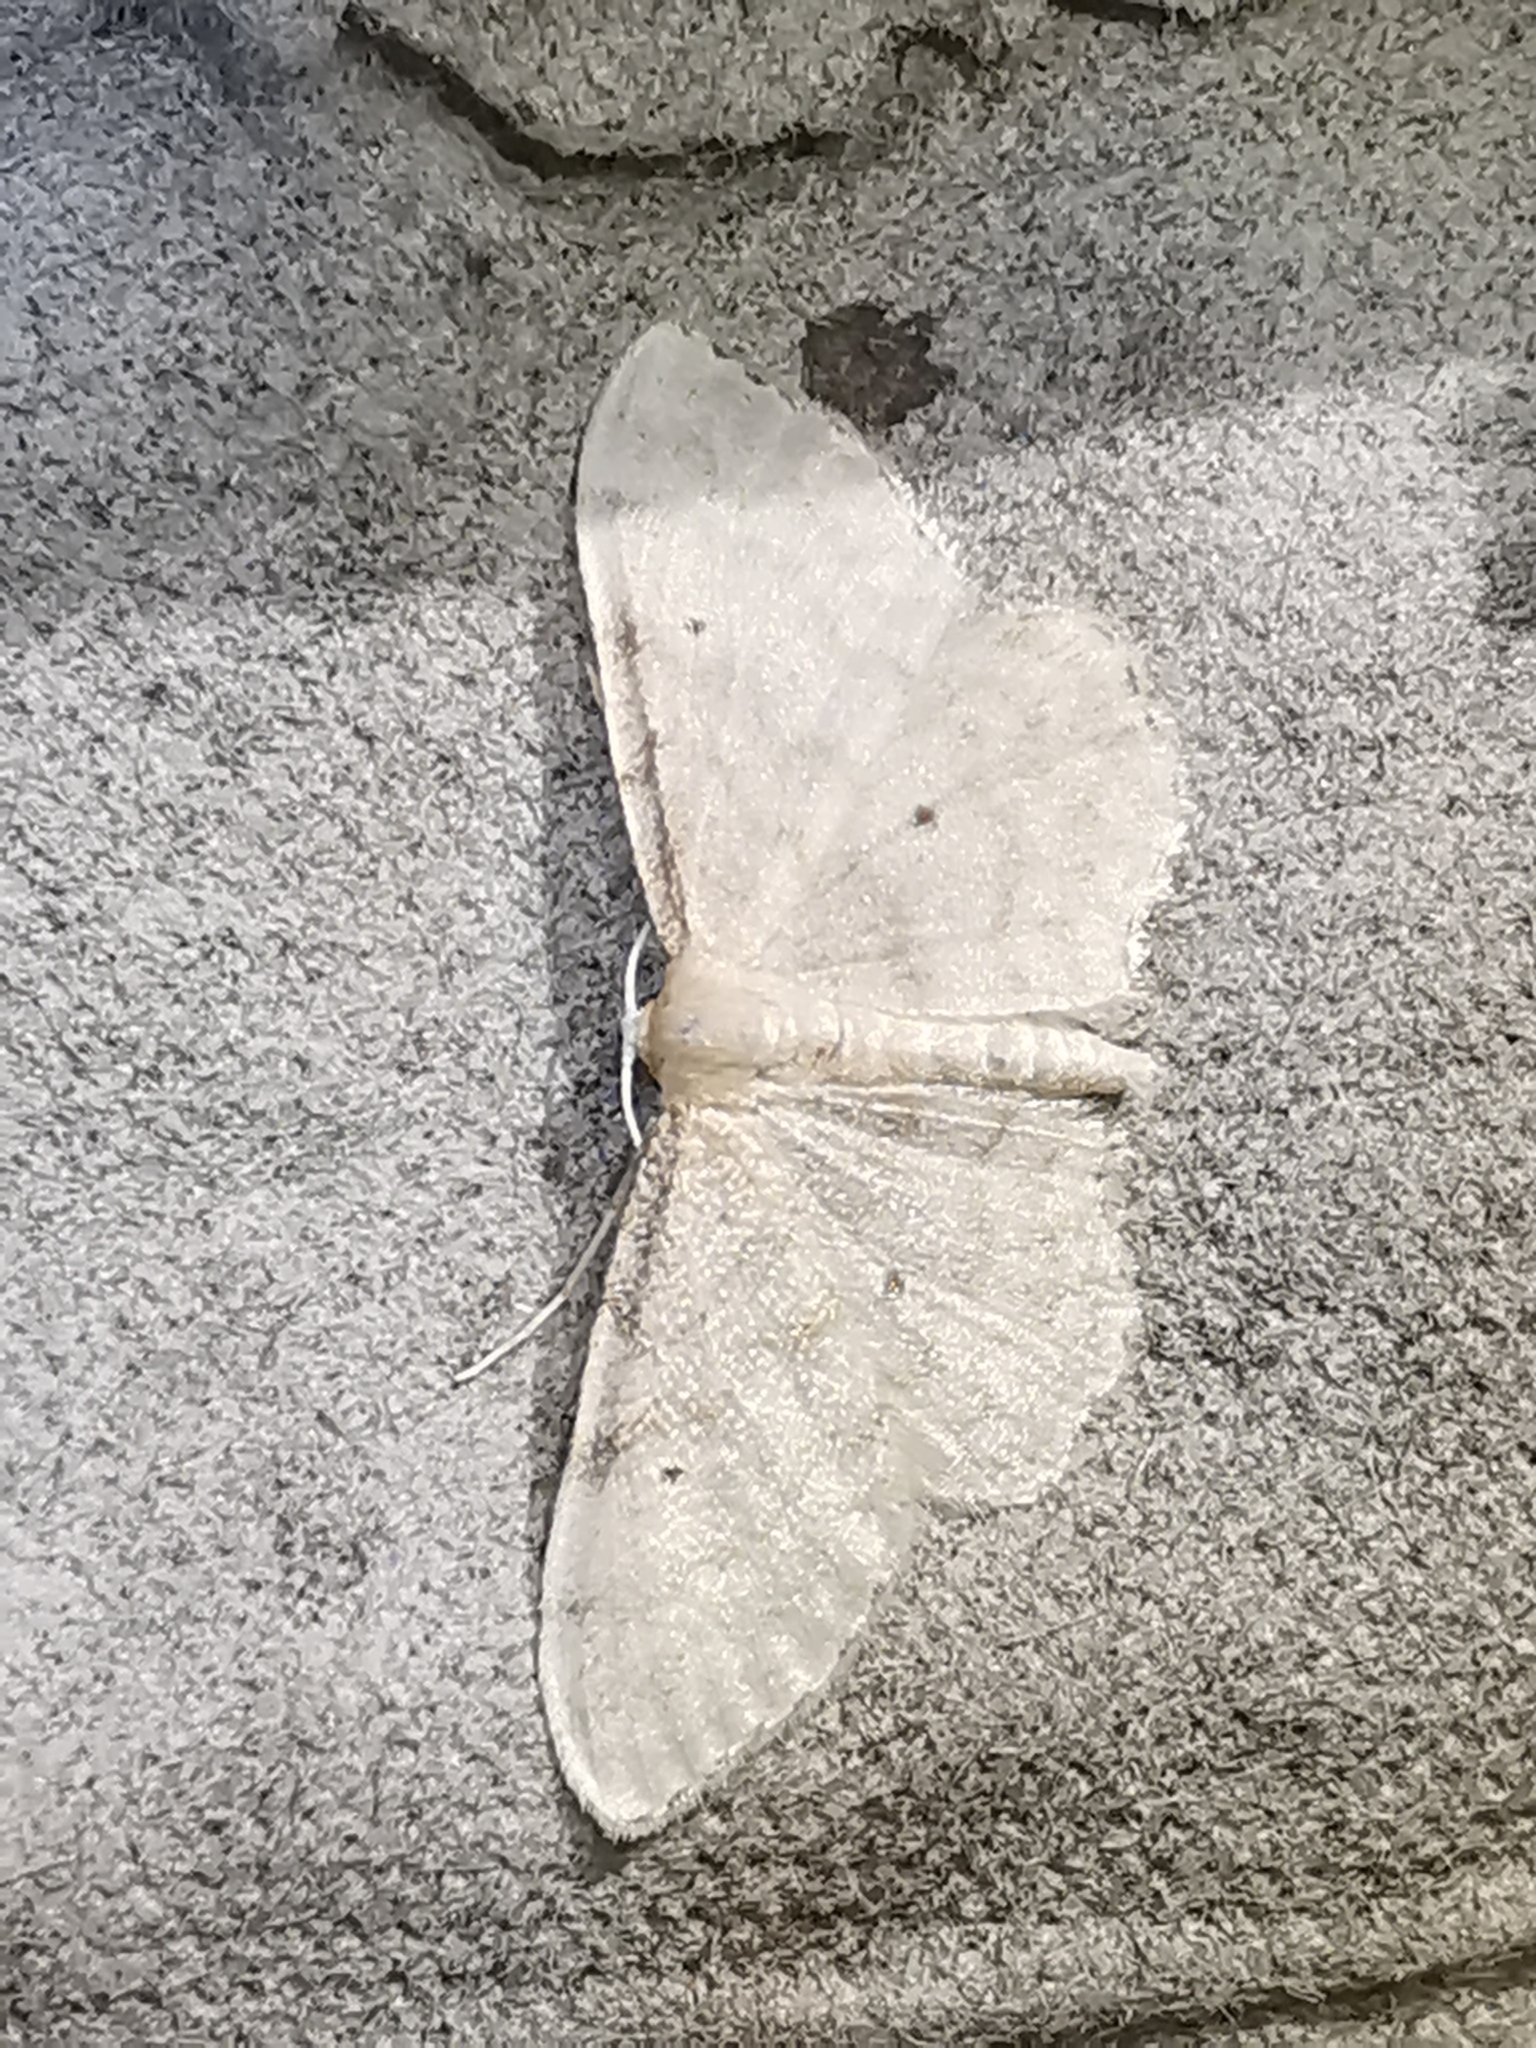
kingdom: Animalia
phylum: Arthropoda
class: Insecta
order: Lepidoptera
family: Geometridae
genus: Idaea
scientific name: Idaea fuscovenosa
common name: Dwarf cream wave
